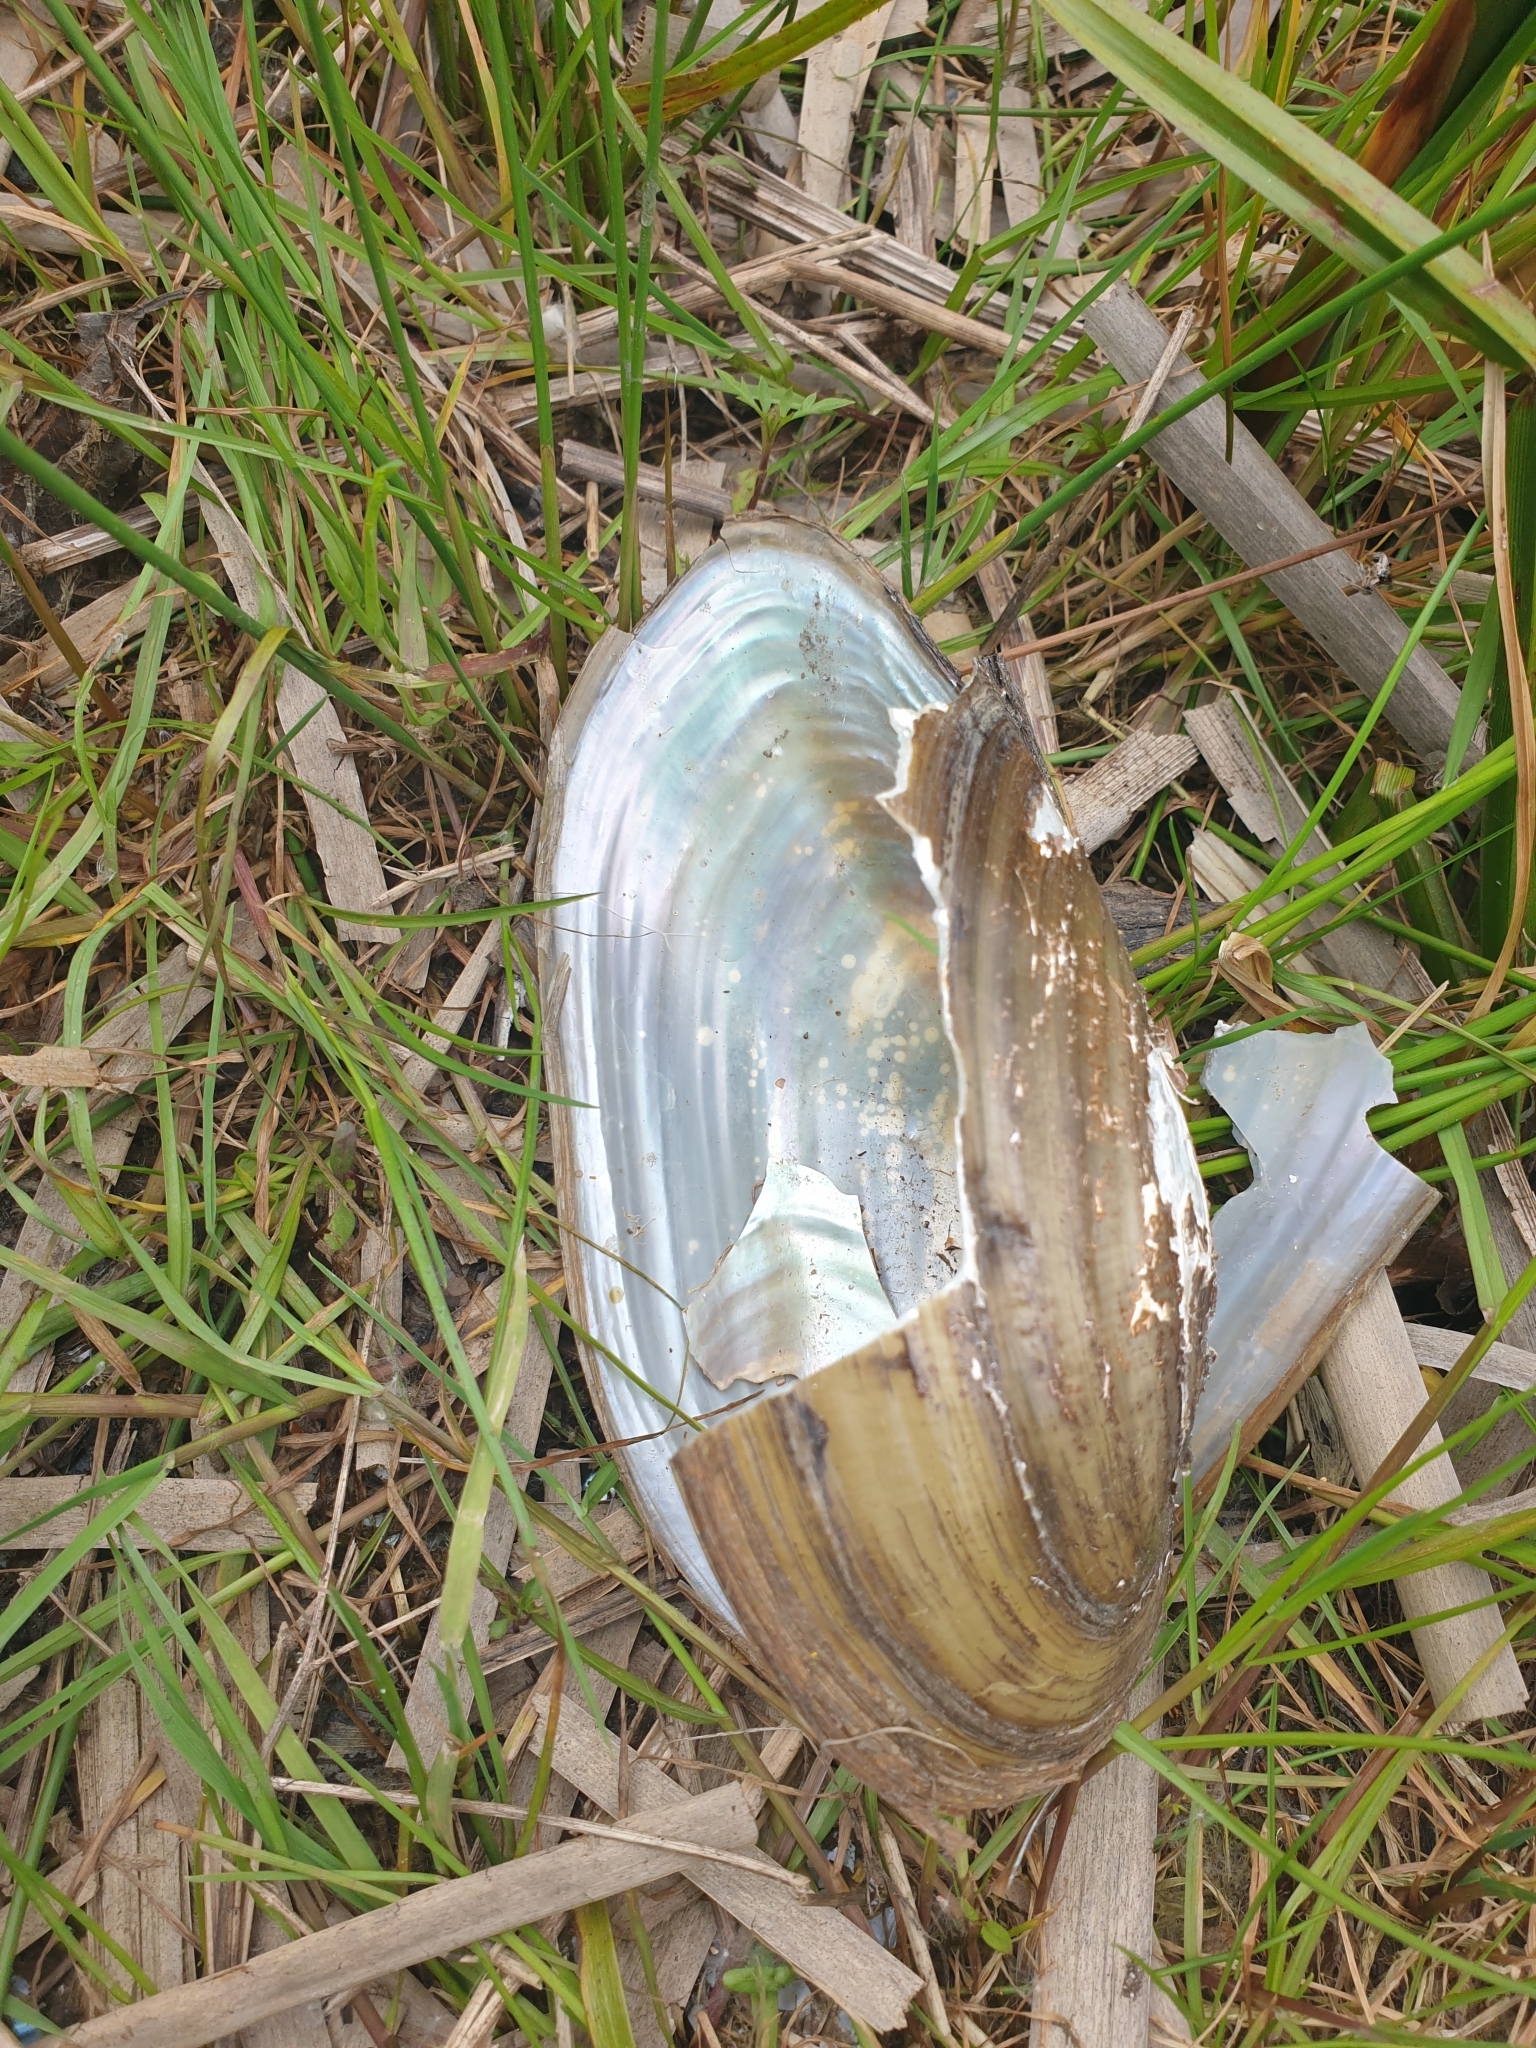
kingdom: Animalia
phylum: Mollusca
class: Bivalvia
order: Unionida
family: Unionidae
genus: Anodonta
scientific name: Anodonta cygnea
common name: Swan mussel
